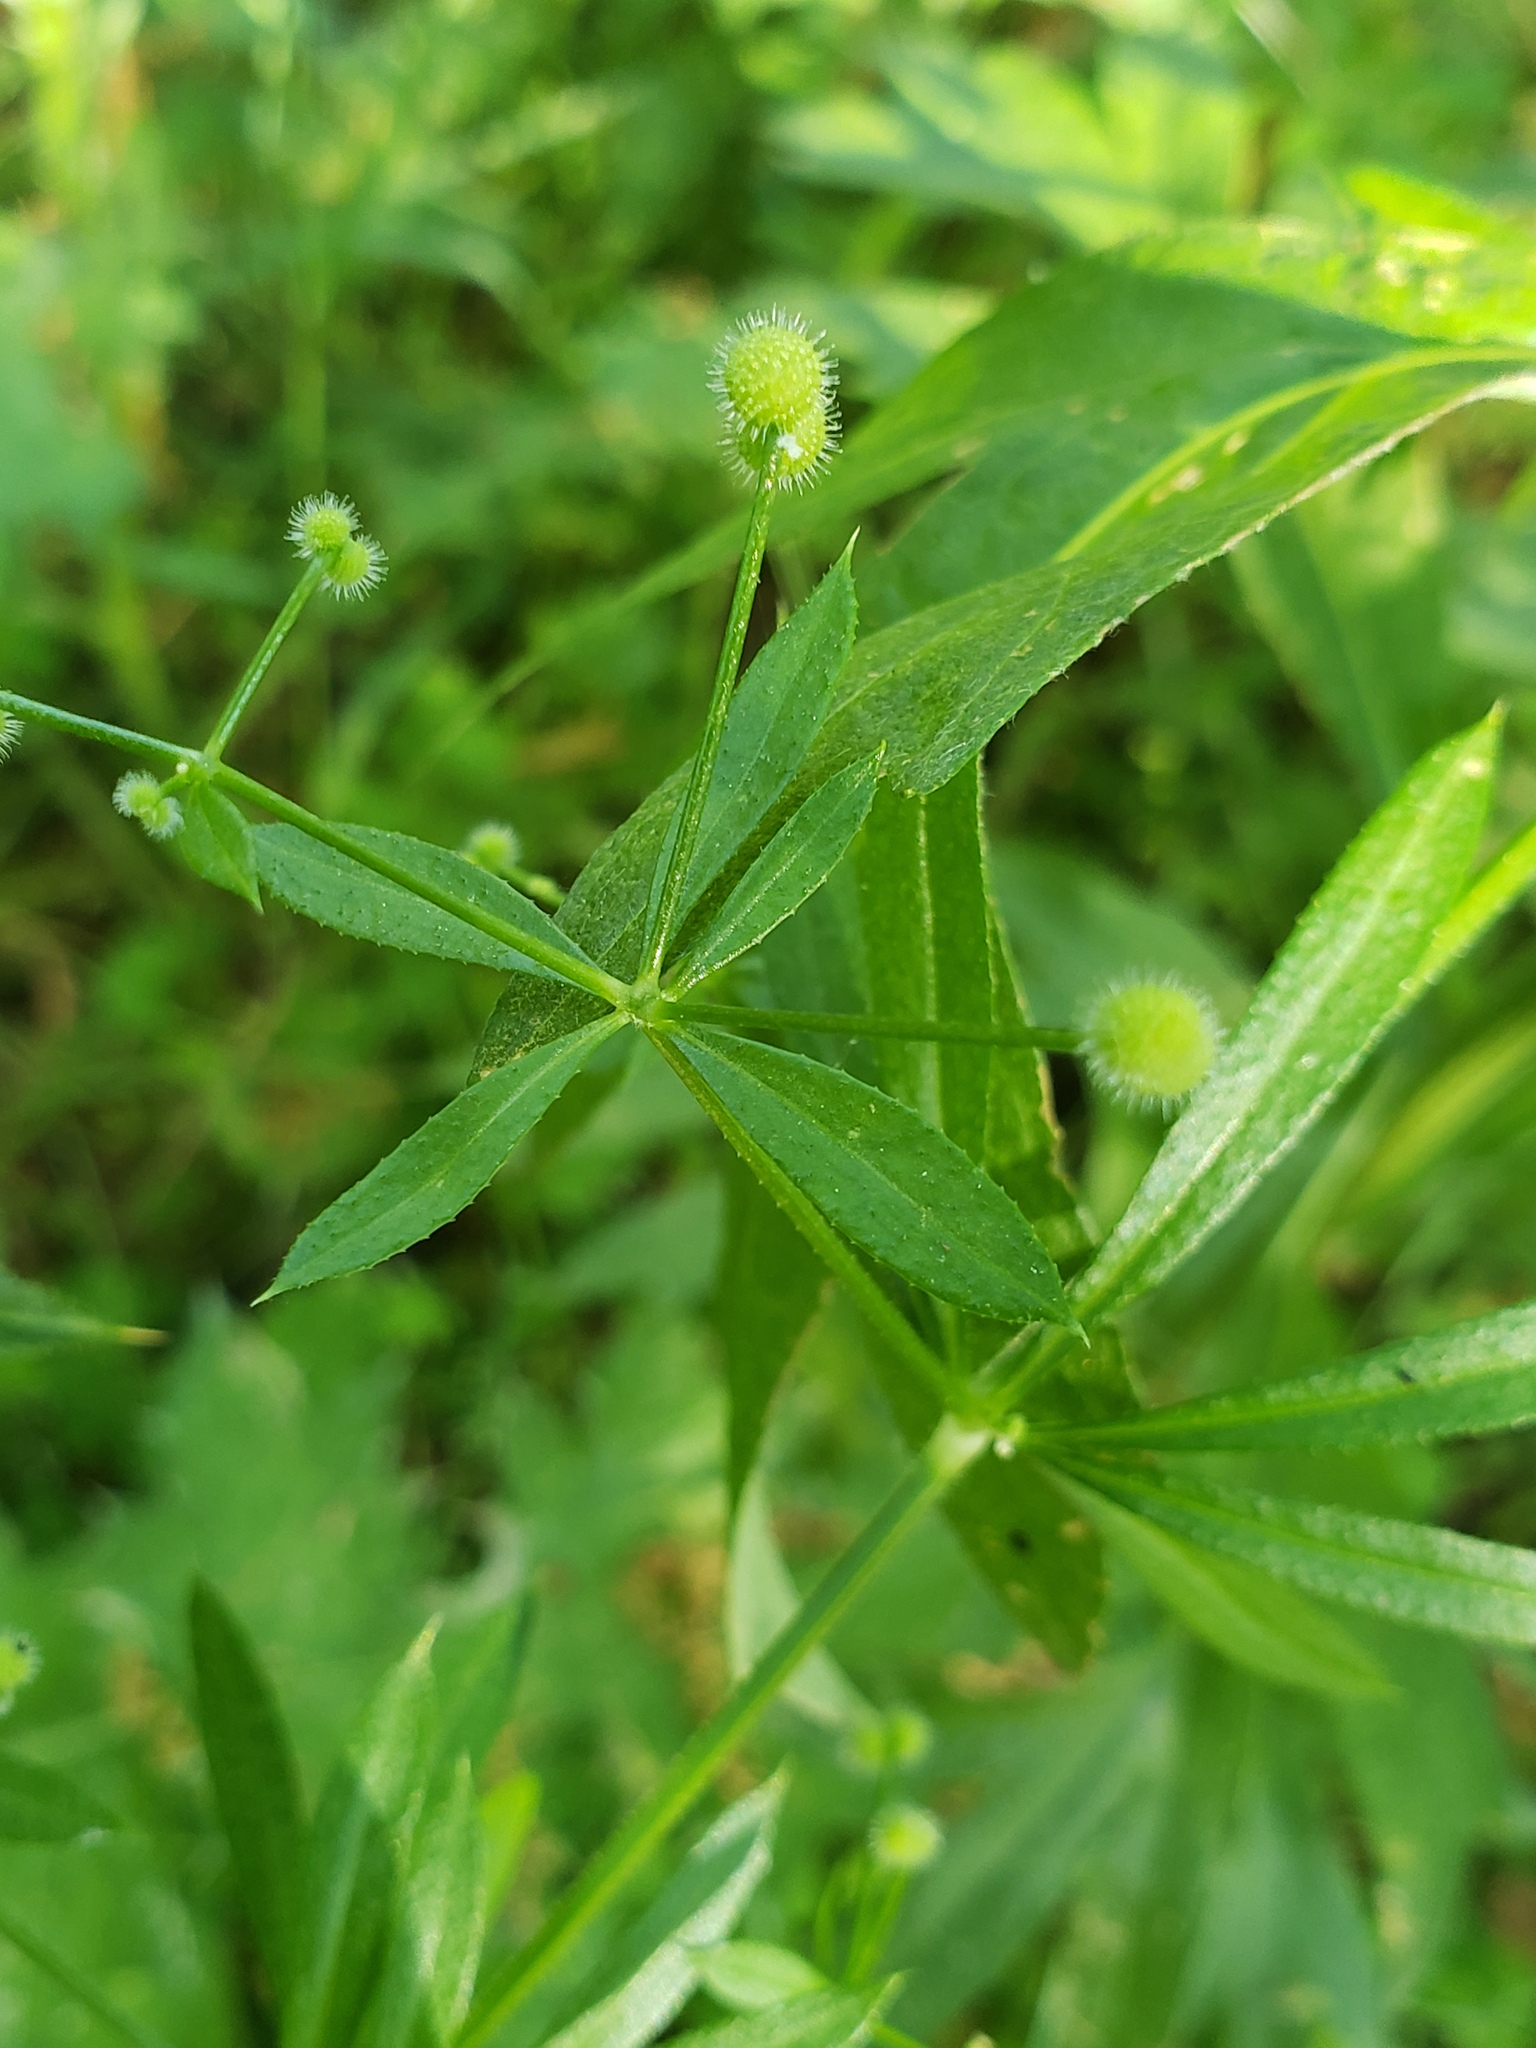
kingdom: Plantae
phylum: Tracheophyta
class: Magnoliopsida
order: Gentianales
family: Rubiaceae
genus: Galium
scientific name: Galium aparine
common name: Cleavers
